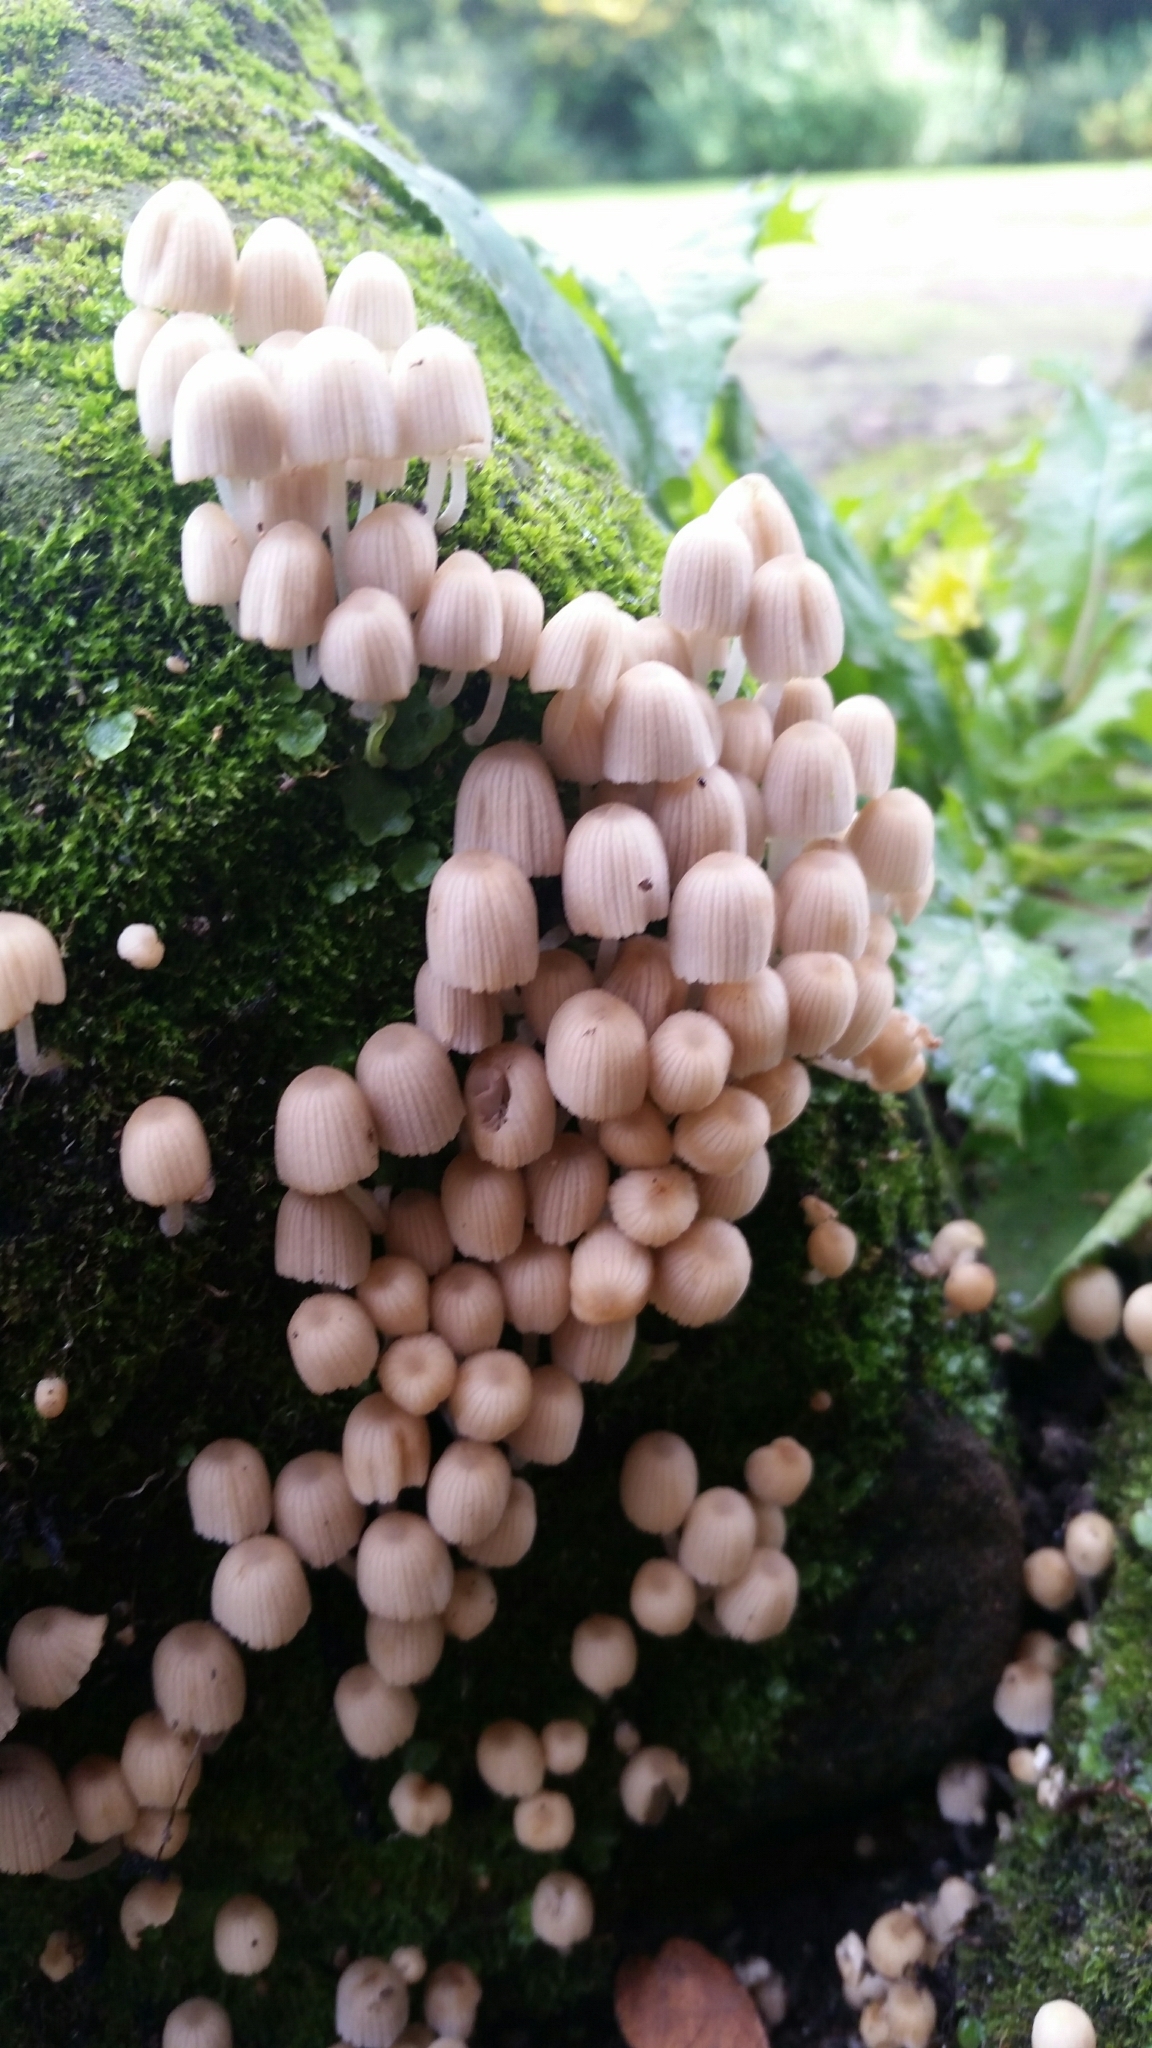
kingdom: Fungi
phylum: Basidiomycota
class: Agaricomycetes
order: Agaricales
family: Psathyrellaceae
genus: Coprinellus
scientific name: Coprinellus disseminatus
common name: Fairies' bonnets
